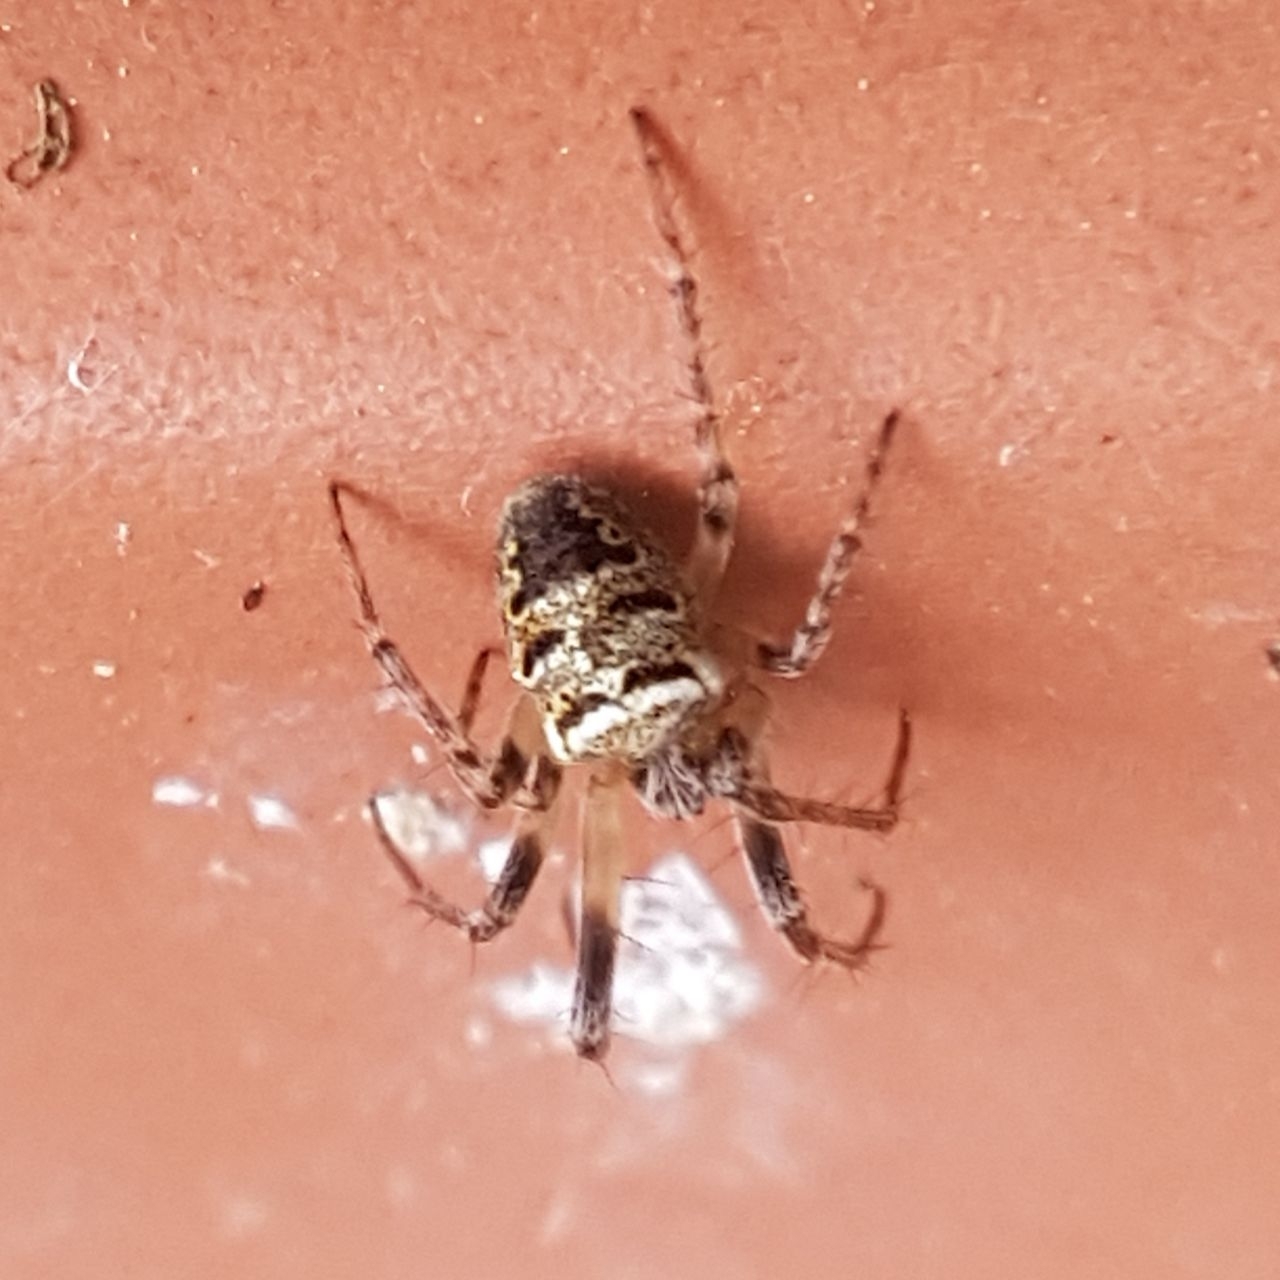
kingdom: Animalia
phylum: Arthropoda
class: Arachnida
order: Araneae
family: Araneidae
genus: Zilla
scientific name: Zilla diodia
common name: Zilla diodia
